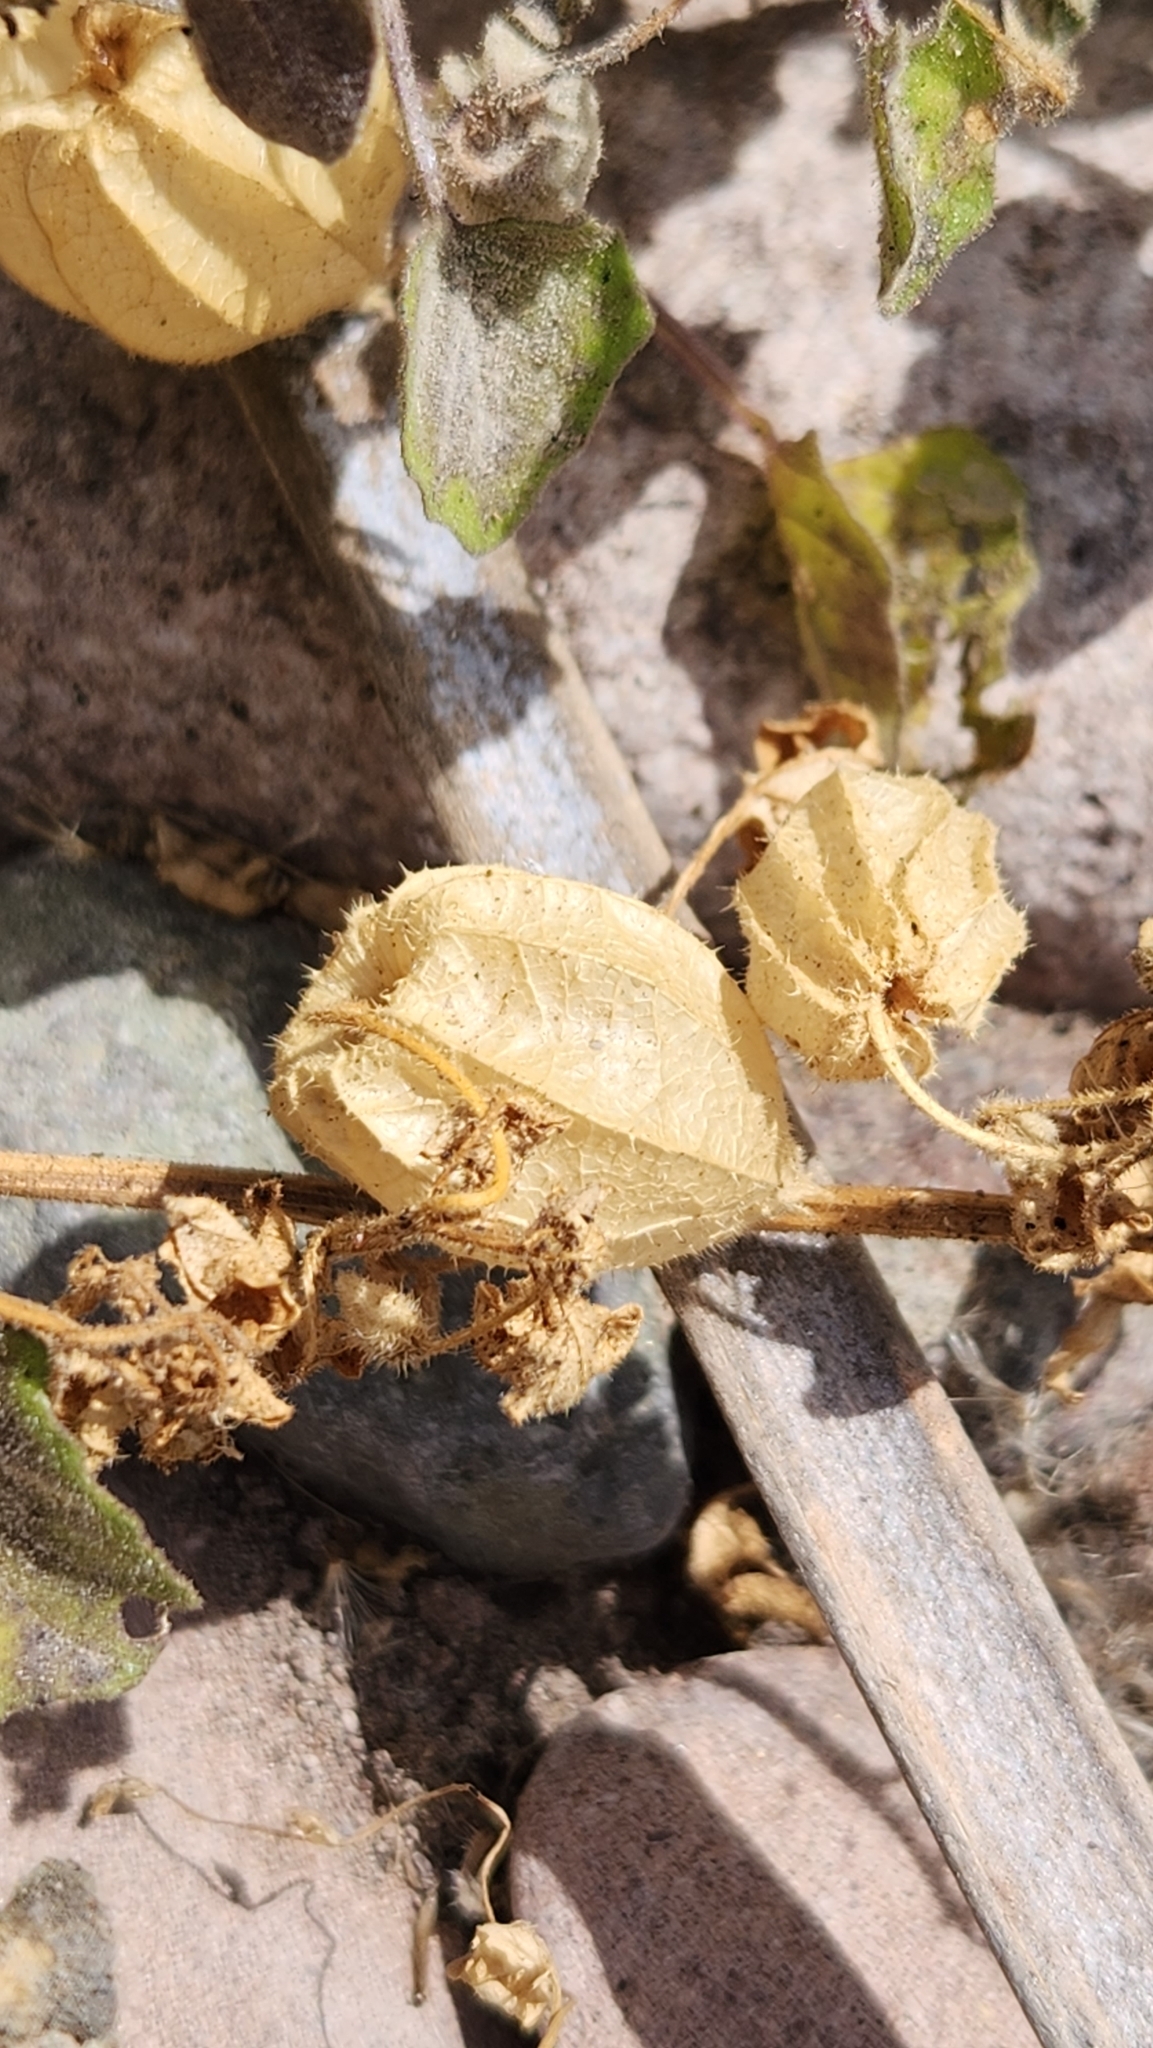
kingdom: Plantae
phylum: Tracheophyta
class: Magnoliopsida
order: Solanales
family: Solanaceae
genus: Physalis
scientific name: Physalis crassifolia
